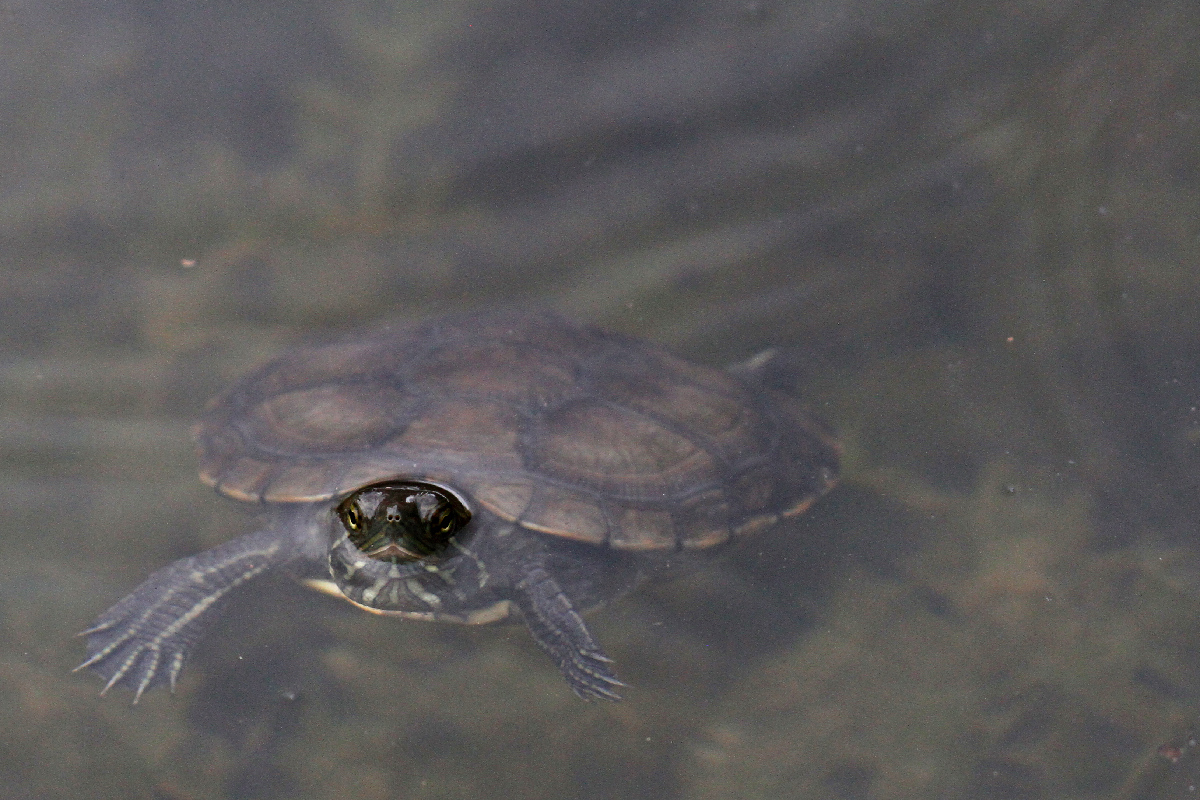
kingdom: Animalia
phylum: Chordata
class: Testudines
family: Emydidae
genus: Trachemys
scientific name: Trachemys terrapen
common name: Jamaican slider
